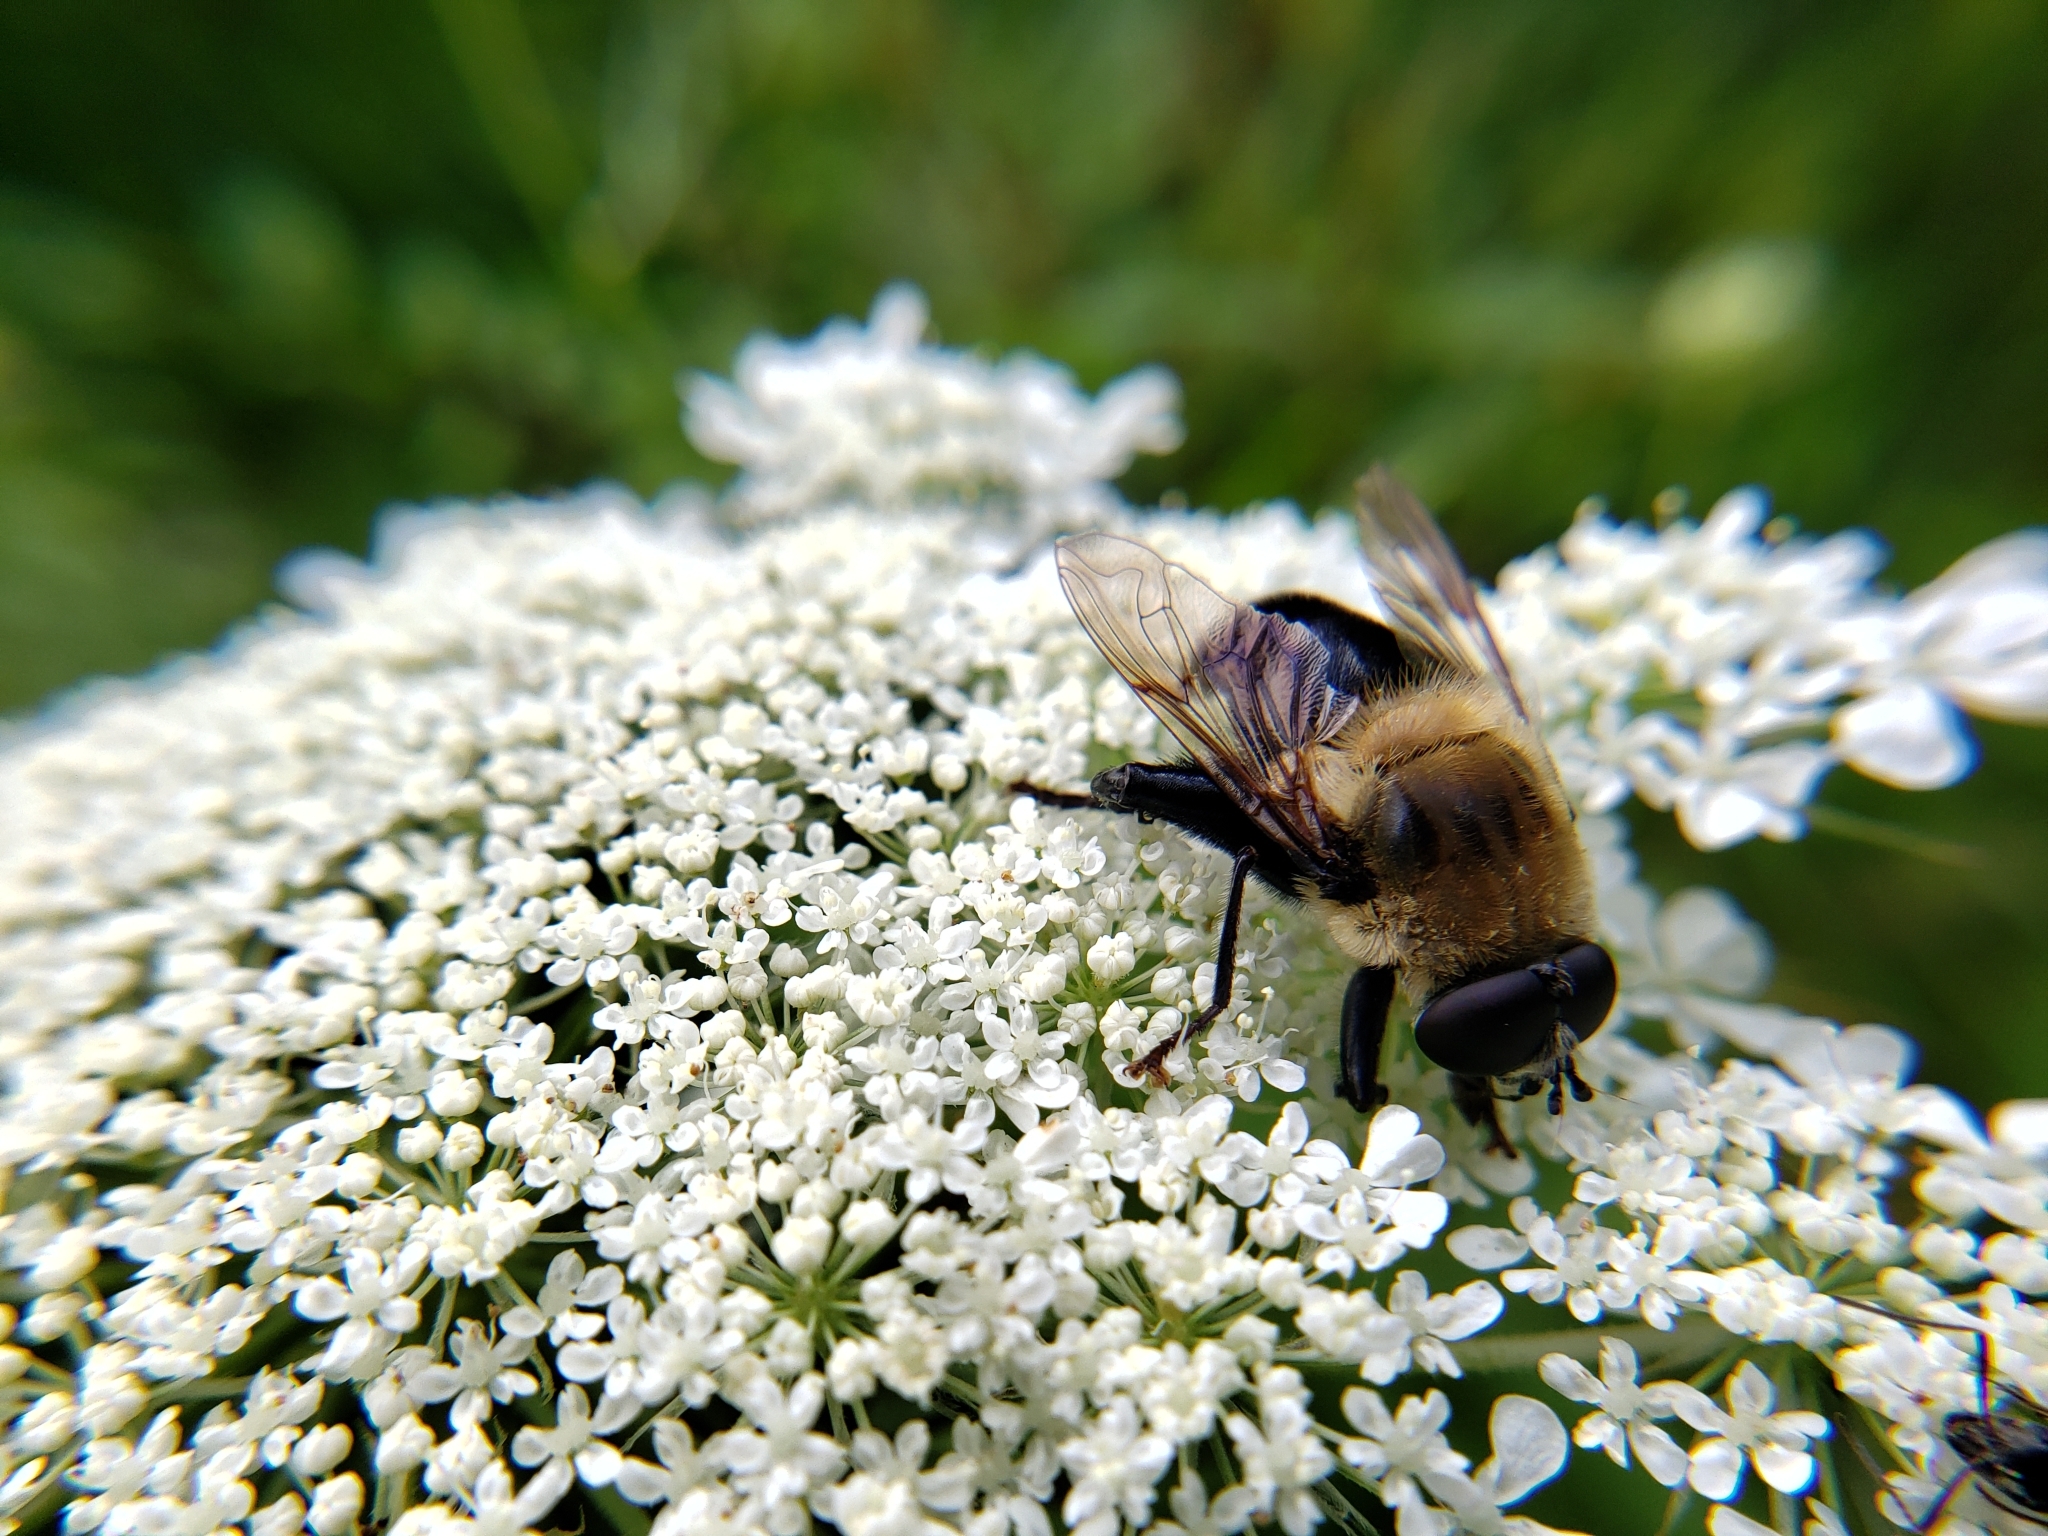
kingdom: Animalia
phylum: Arthropoda
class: Insecta
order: Diptera
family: Syrphidae
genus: Imatisma
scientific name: Imatisma bautias
